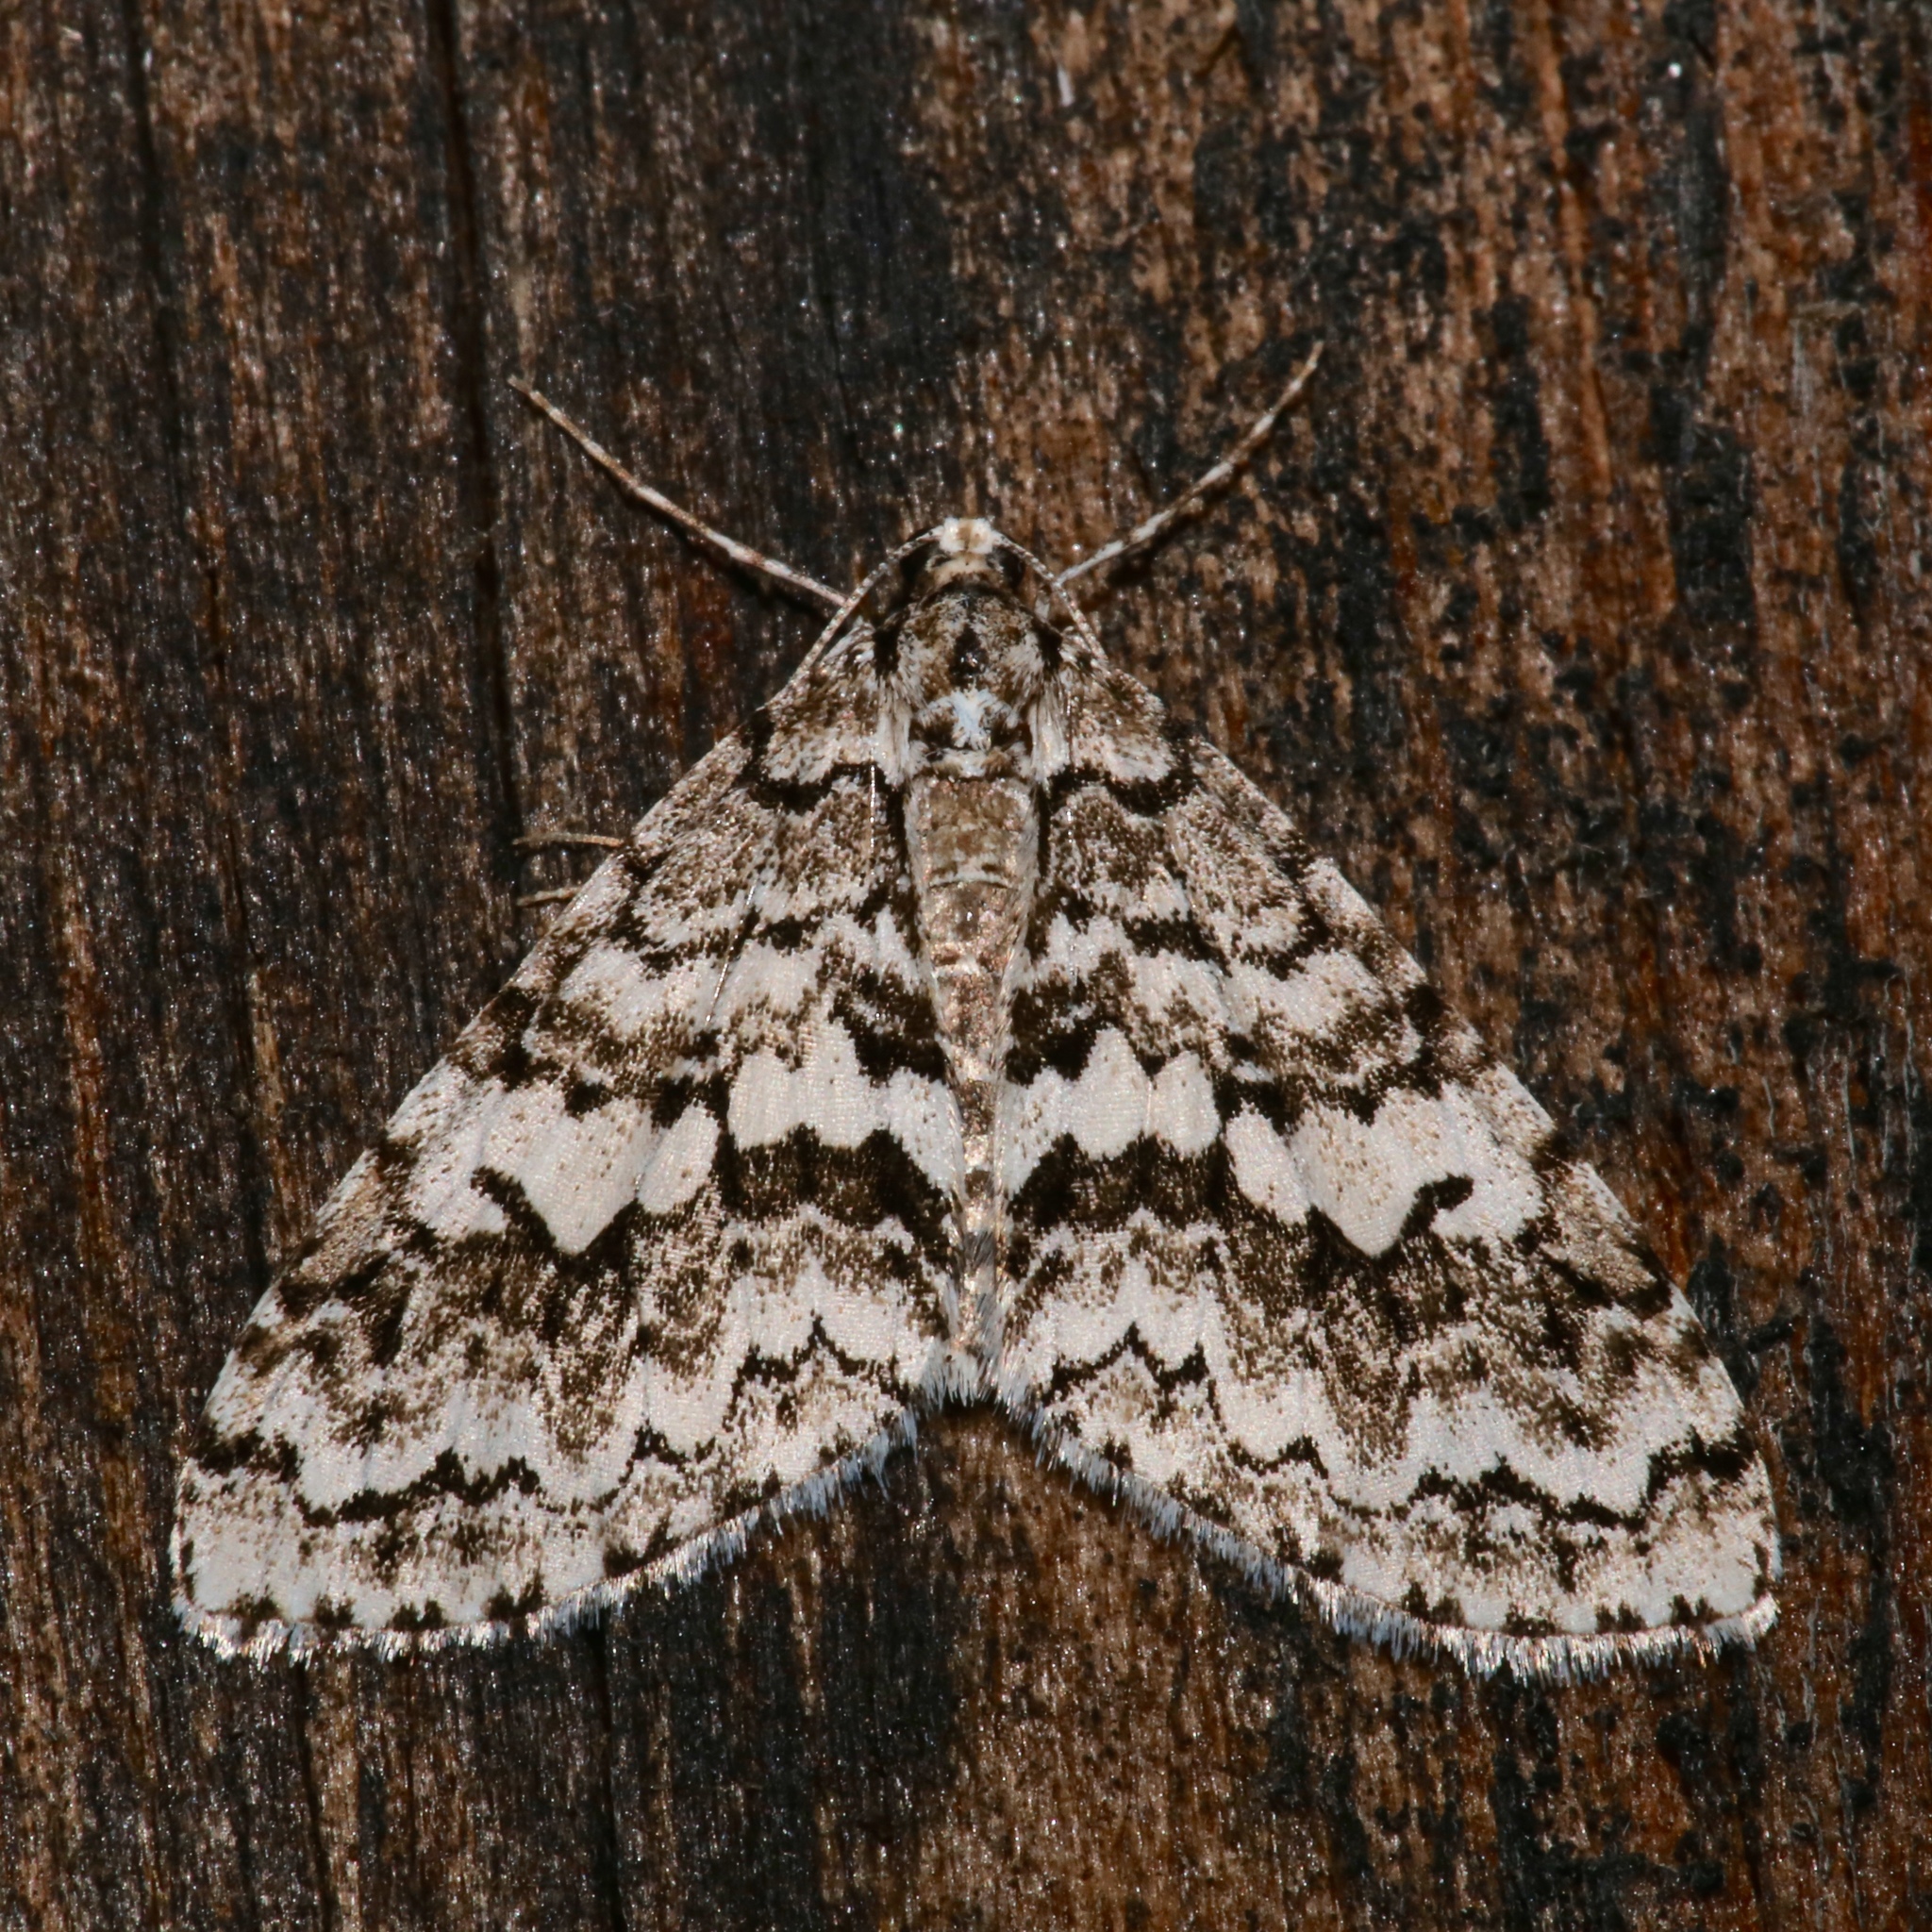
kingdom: Animalia
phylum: Arthropoda
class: Insecta
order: Lepidoptera
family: Geometridae
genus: Cladara
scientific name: Cladara atroliturata
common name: Scribbler
